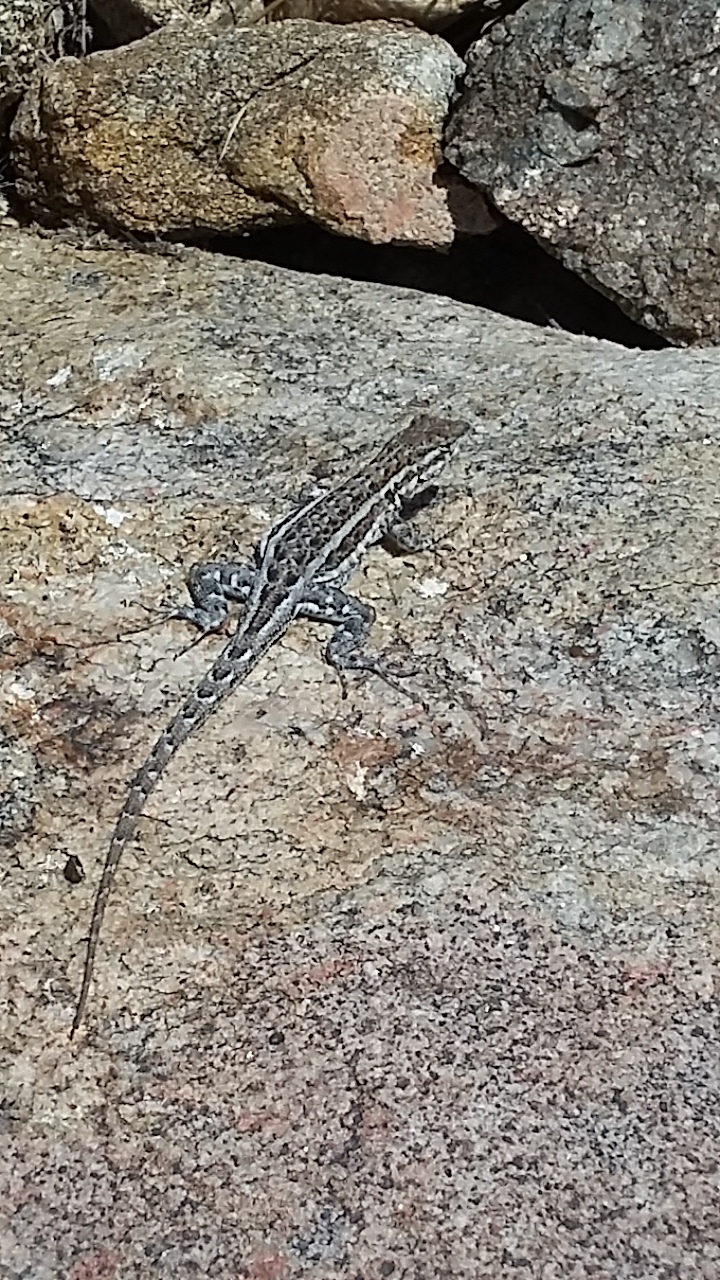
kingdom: Animalia
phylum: Chordata
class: Squamata
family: Phrynosomatidae
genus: Uta
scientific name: Uta stansburiana
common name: Side-blotched lizard
